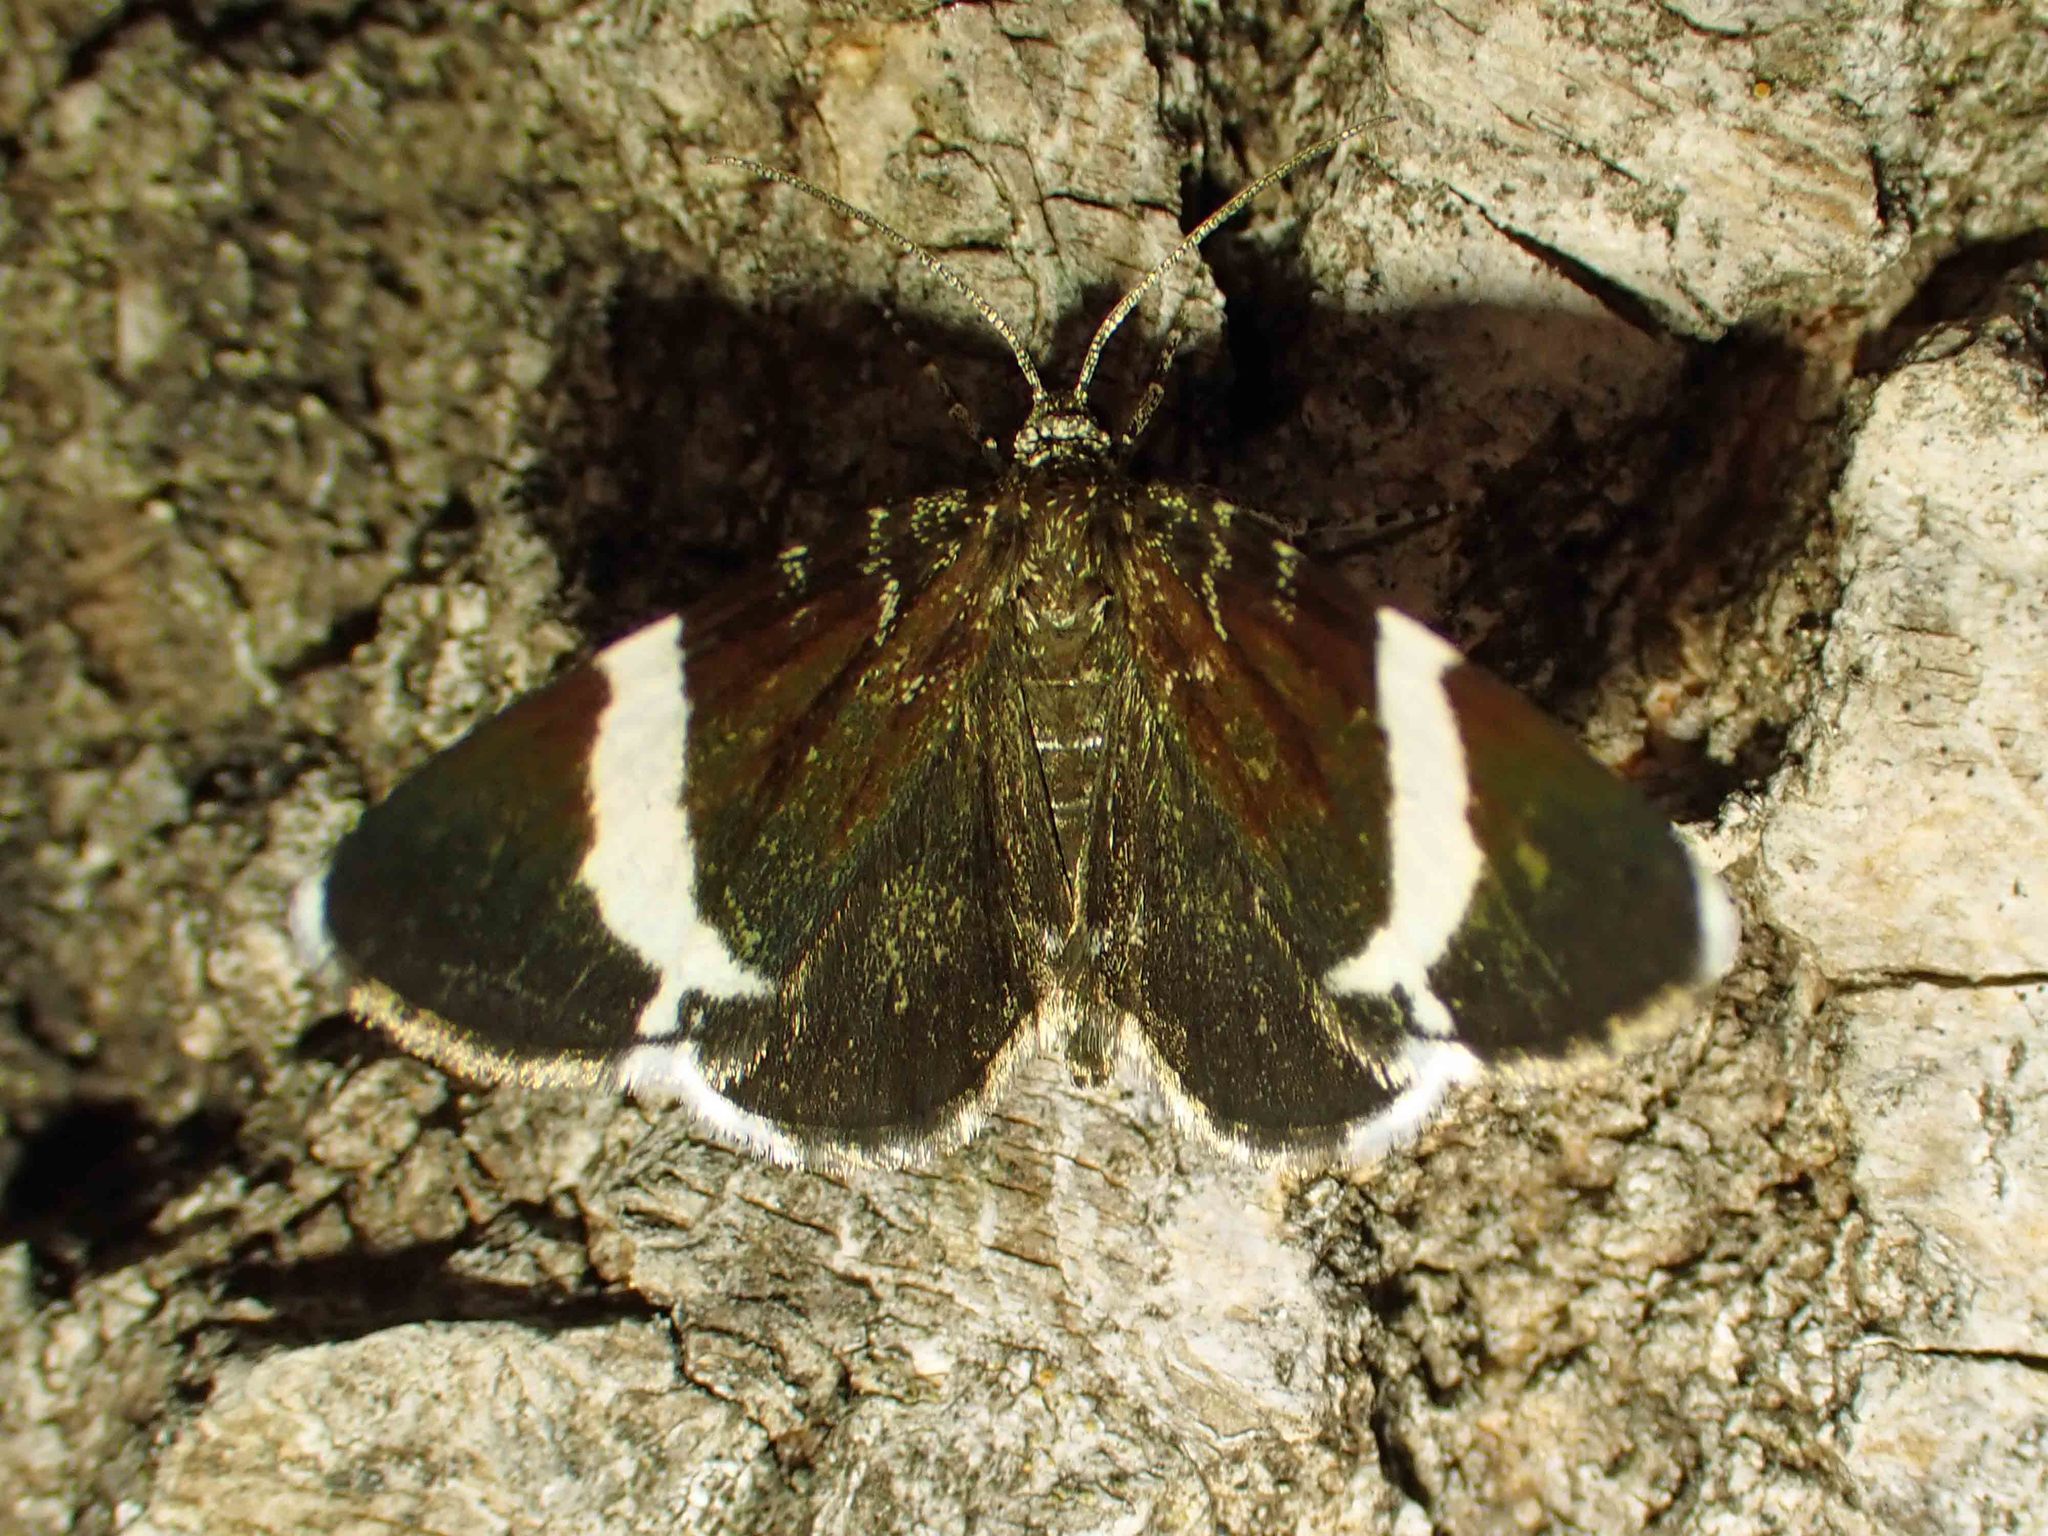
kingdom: Animalia
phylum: Arthropoda
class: Insecta
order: Lepidoptera
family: Geometridae
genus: Trichodezia
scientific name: Trichodezia albovittata
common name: White striped black
